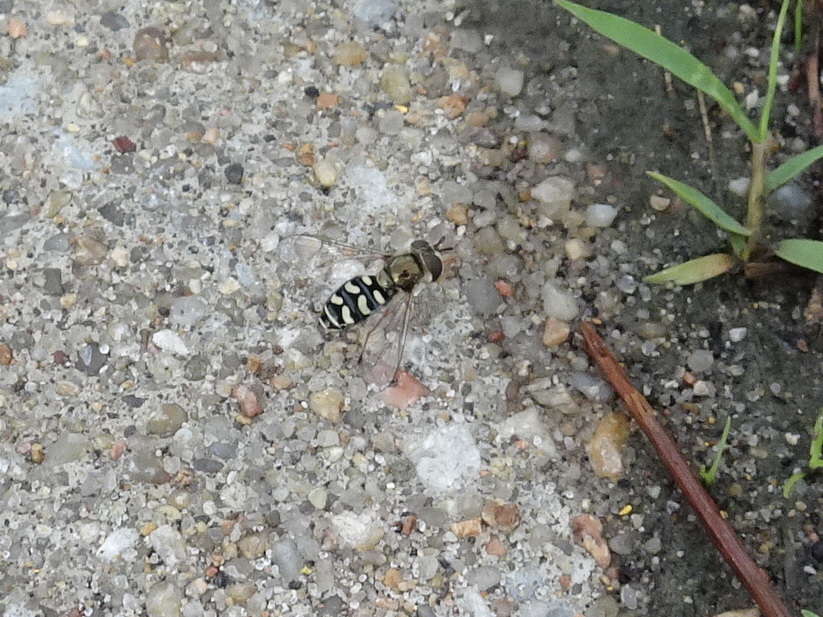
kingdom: Animalia
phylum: Arthropoda
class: Insecta
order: Diptera
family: Syrphidae
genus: Eupeodes
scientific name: Eupeodes volucris
